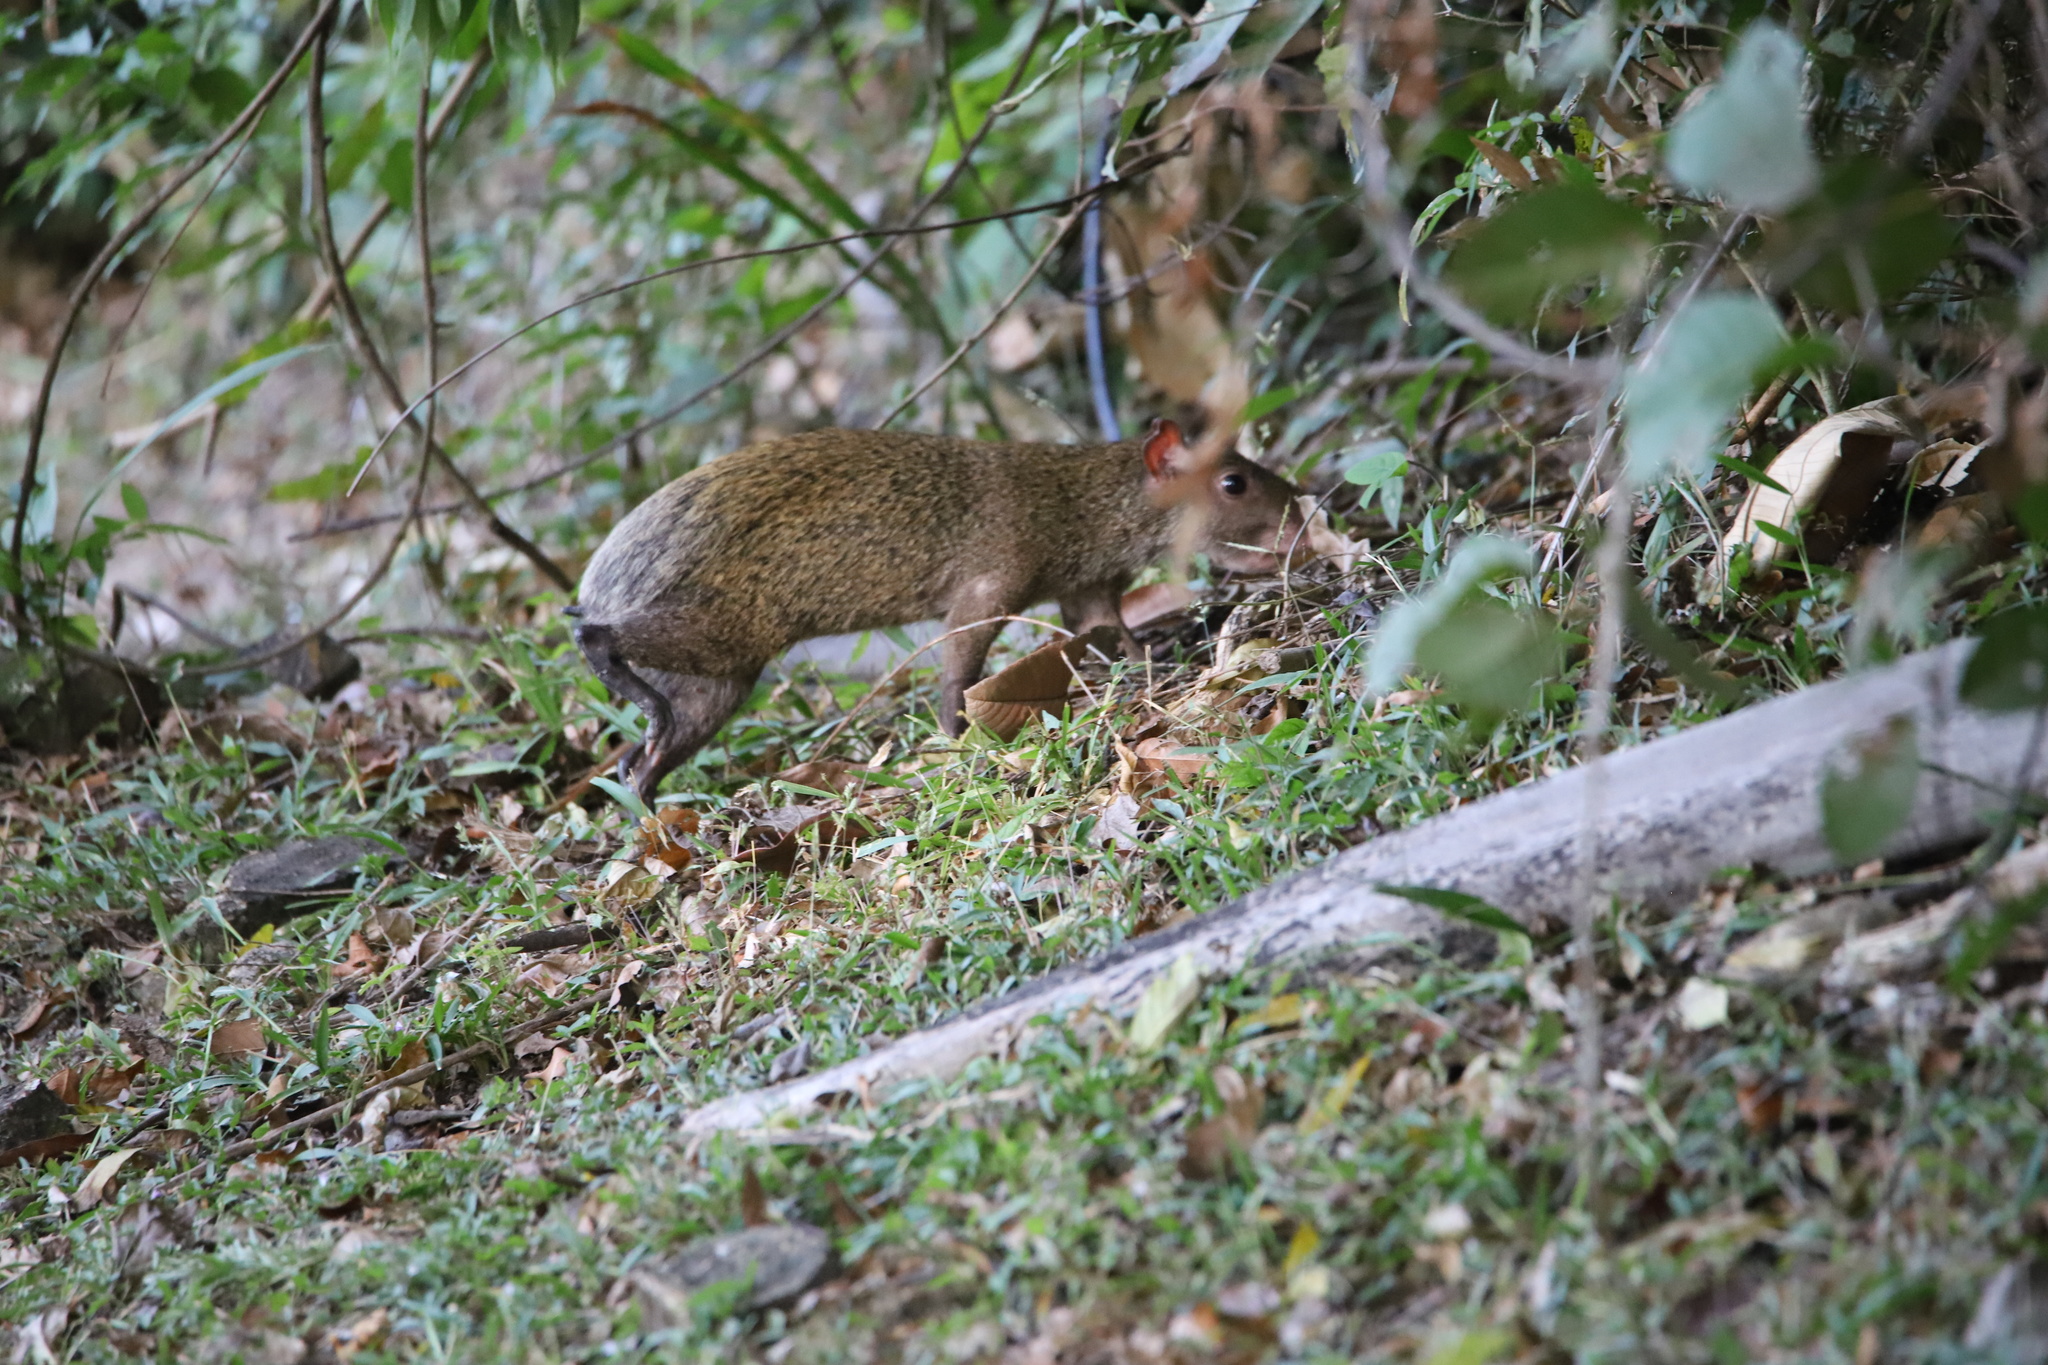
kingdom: Animalia
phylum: Chordata
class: Mammalia
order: Rodentia
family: Dasyproctidae
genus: Dasyprocta
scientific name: Dasyprocta punctata
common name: Central american agouti
